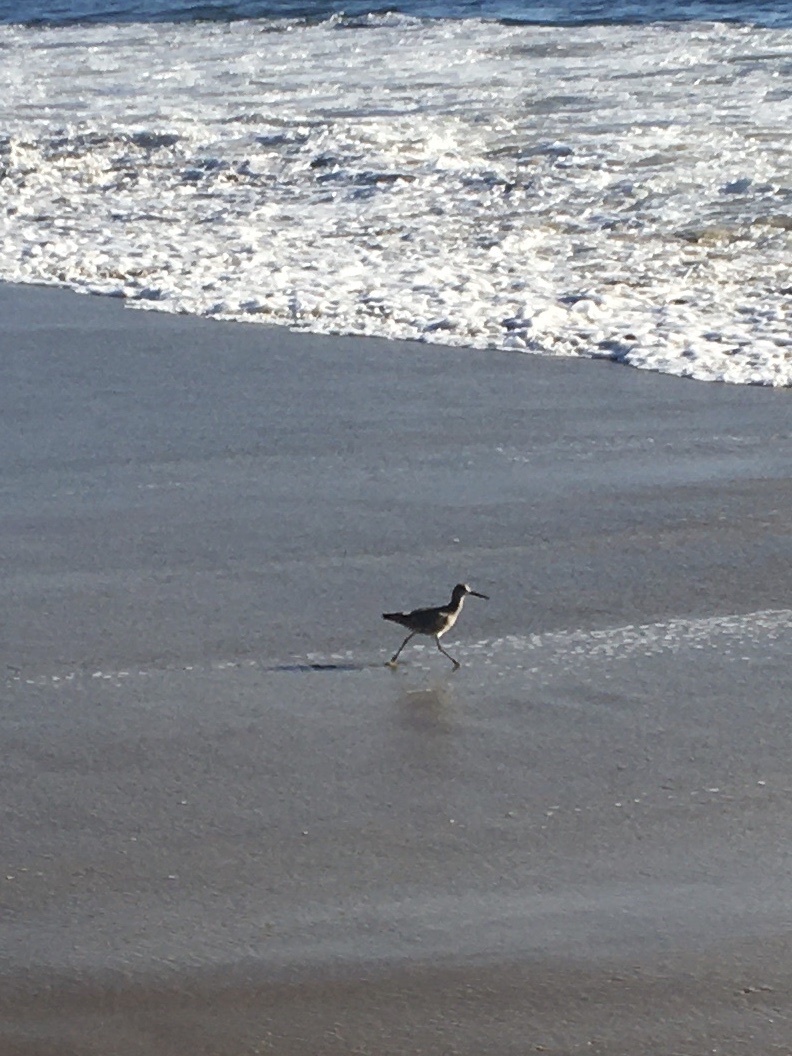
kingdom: Animalia
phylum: Chordata
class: Aves
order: Charadriiformes
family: Scolopacidae
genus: Tringa
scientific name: Tringa semipalmata
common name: Willet
